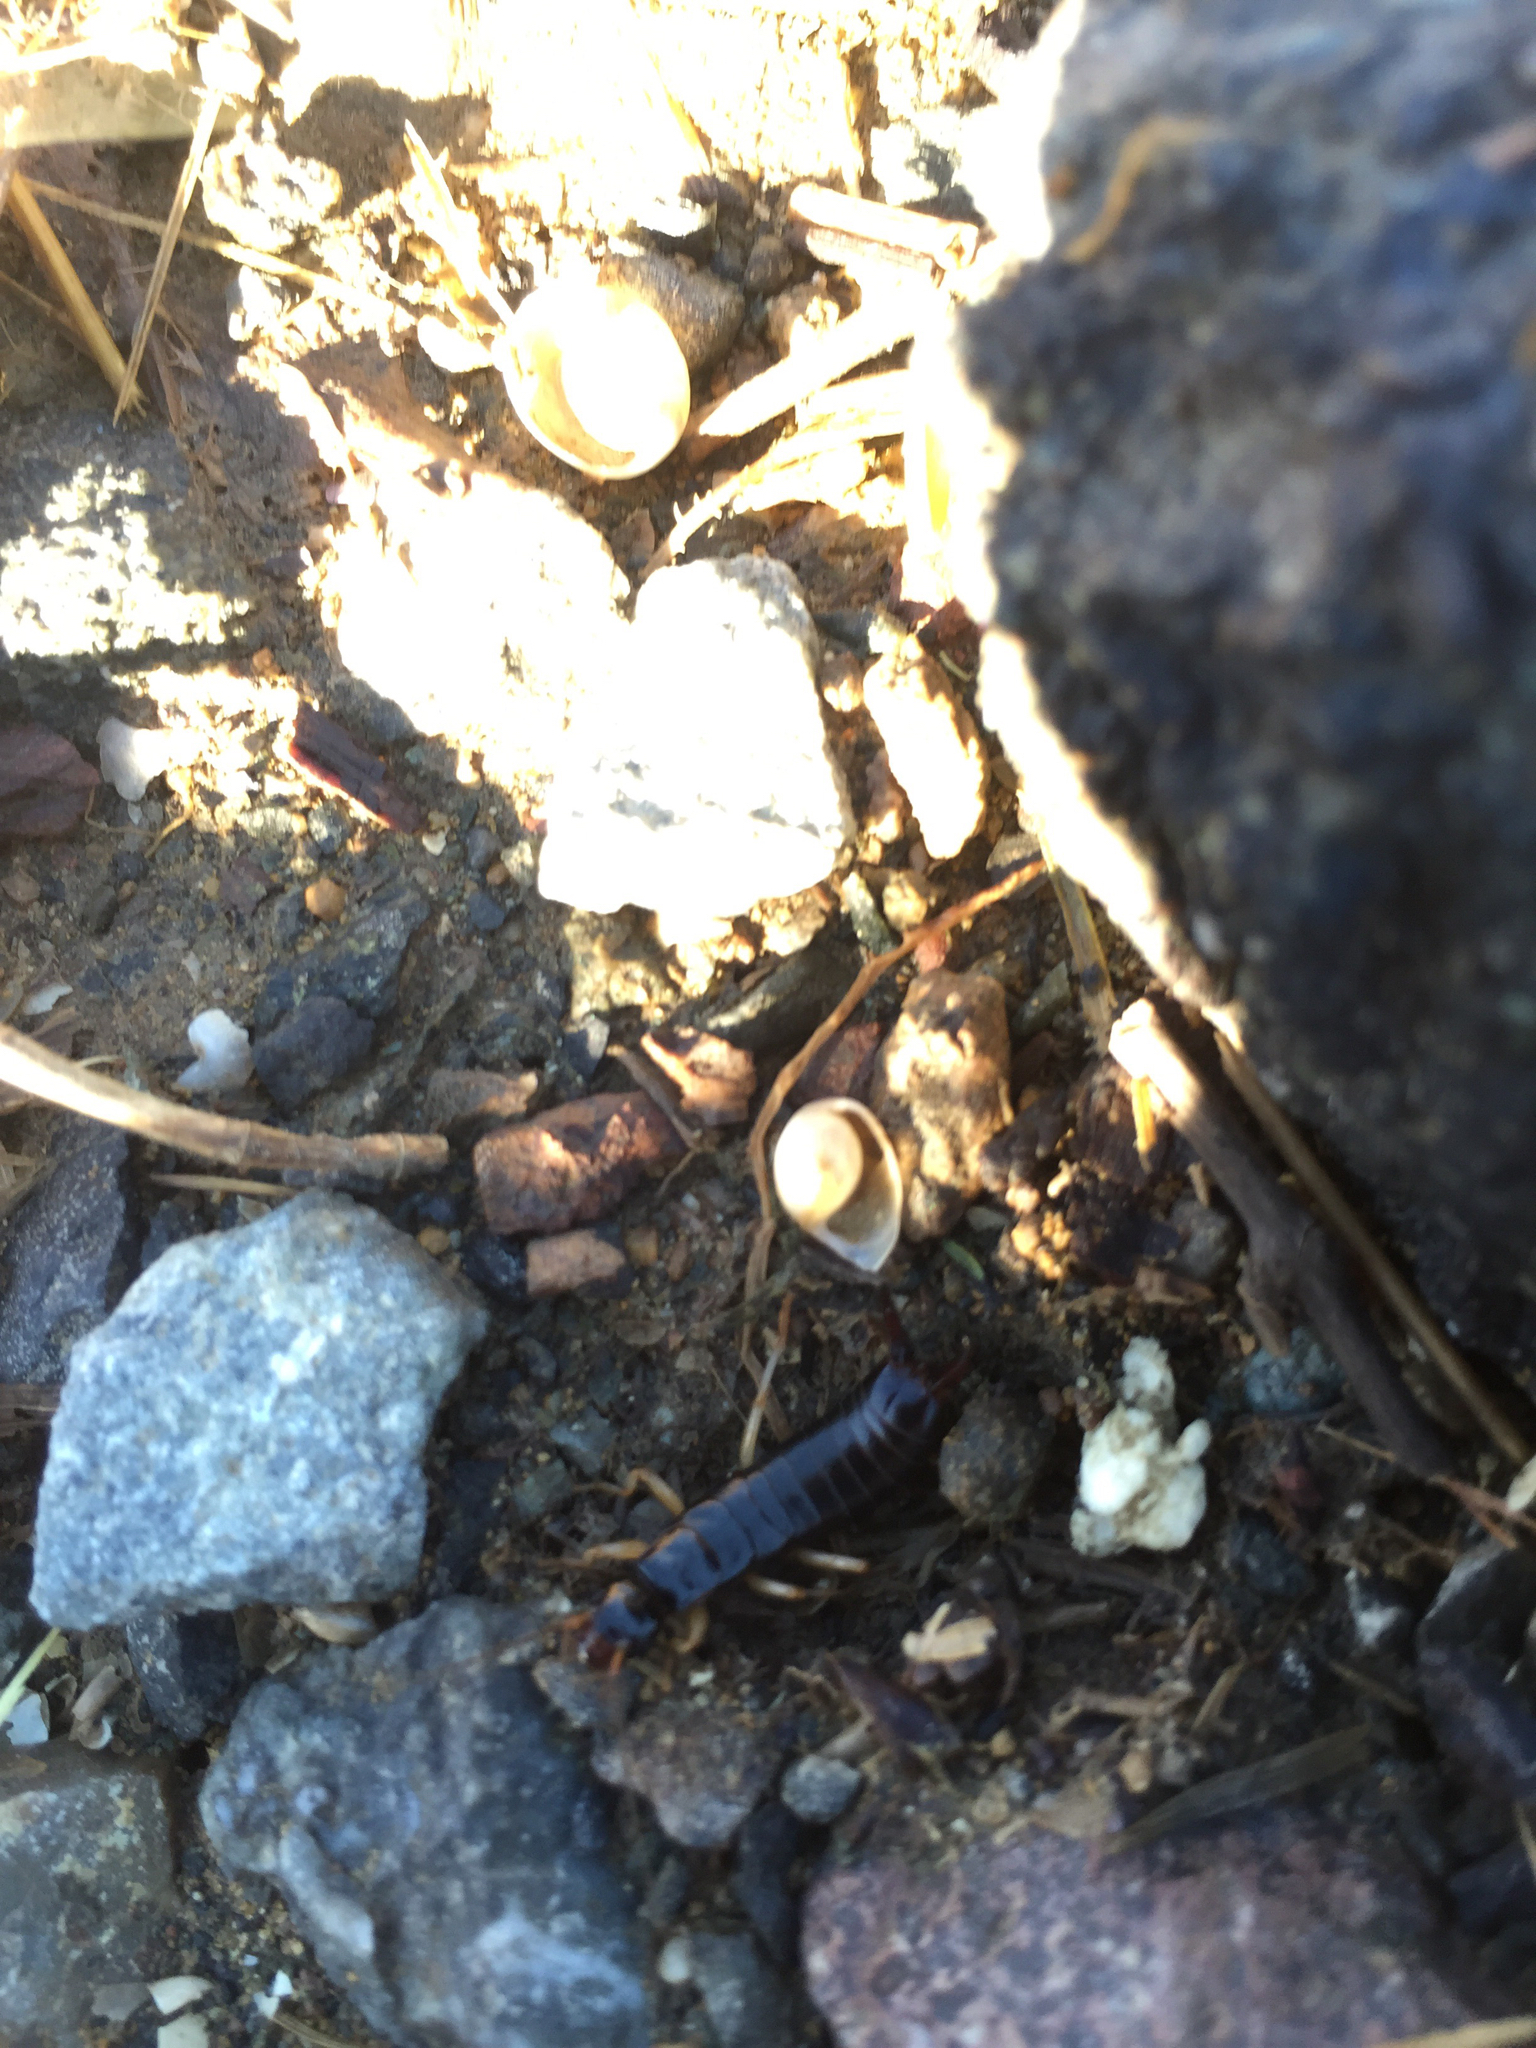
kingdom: Animalia
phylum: Arthropoda
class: Insecta
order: Dermaptera
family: Anisolabididae
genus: Anisolabis
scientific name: Anisolabis maritima
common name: Maritime earwig
